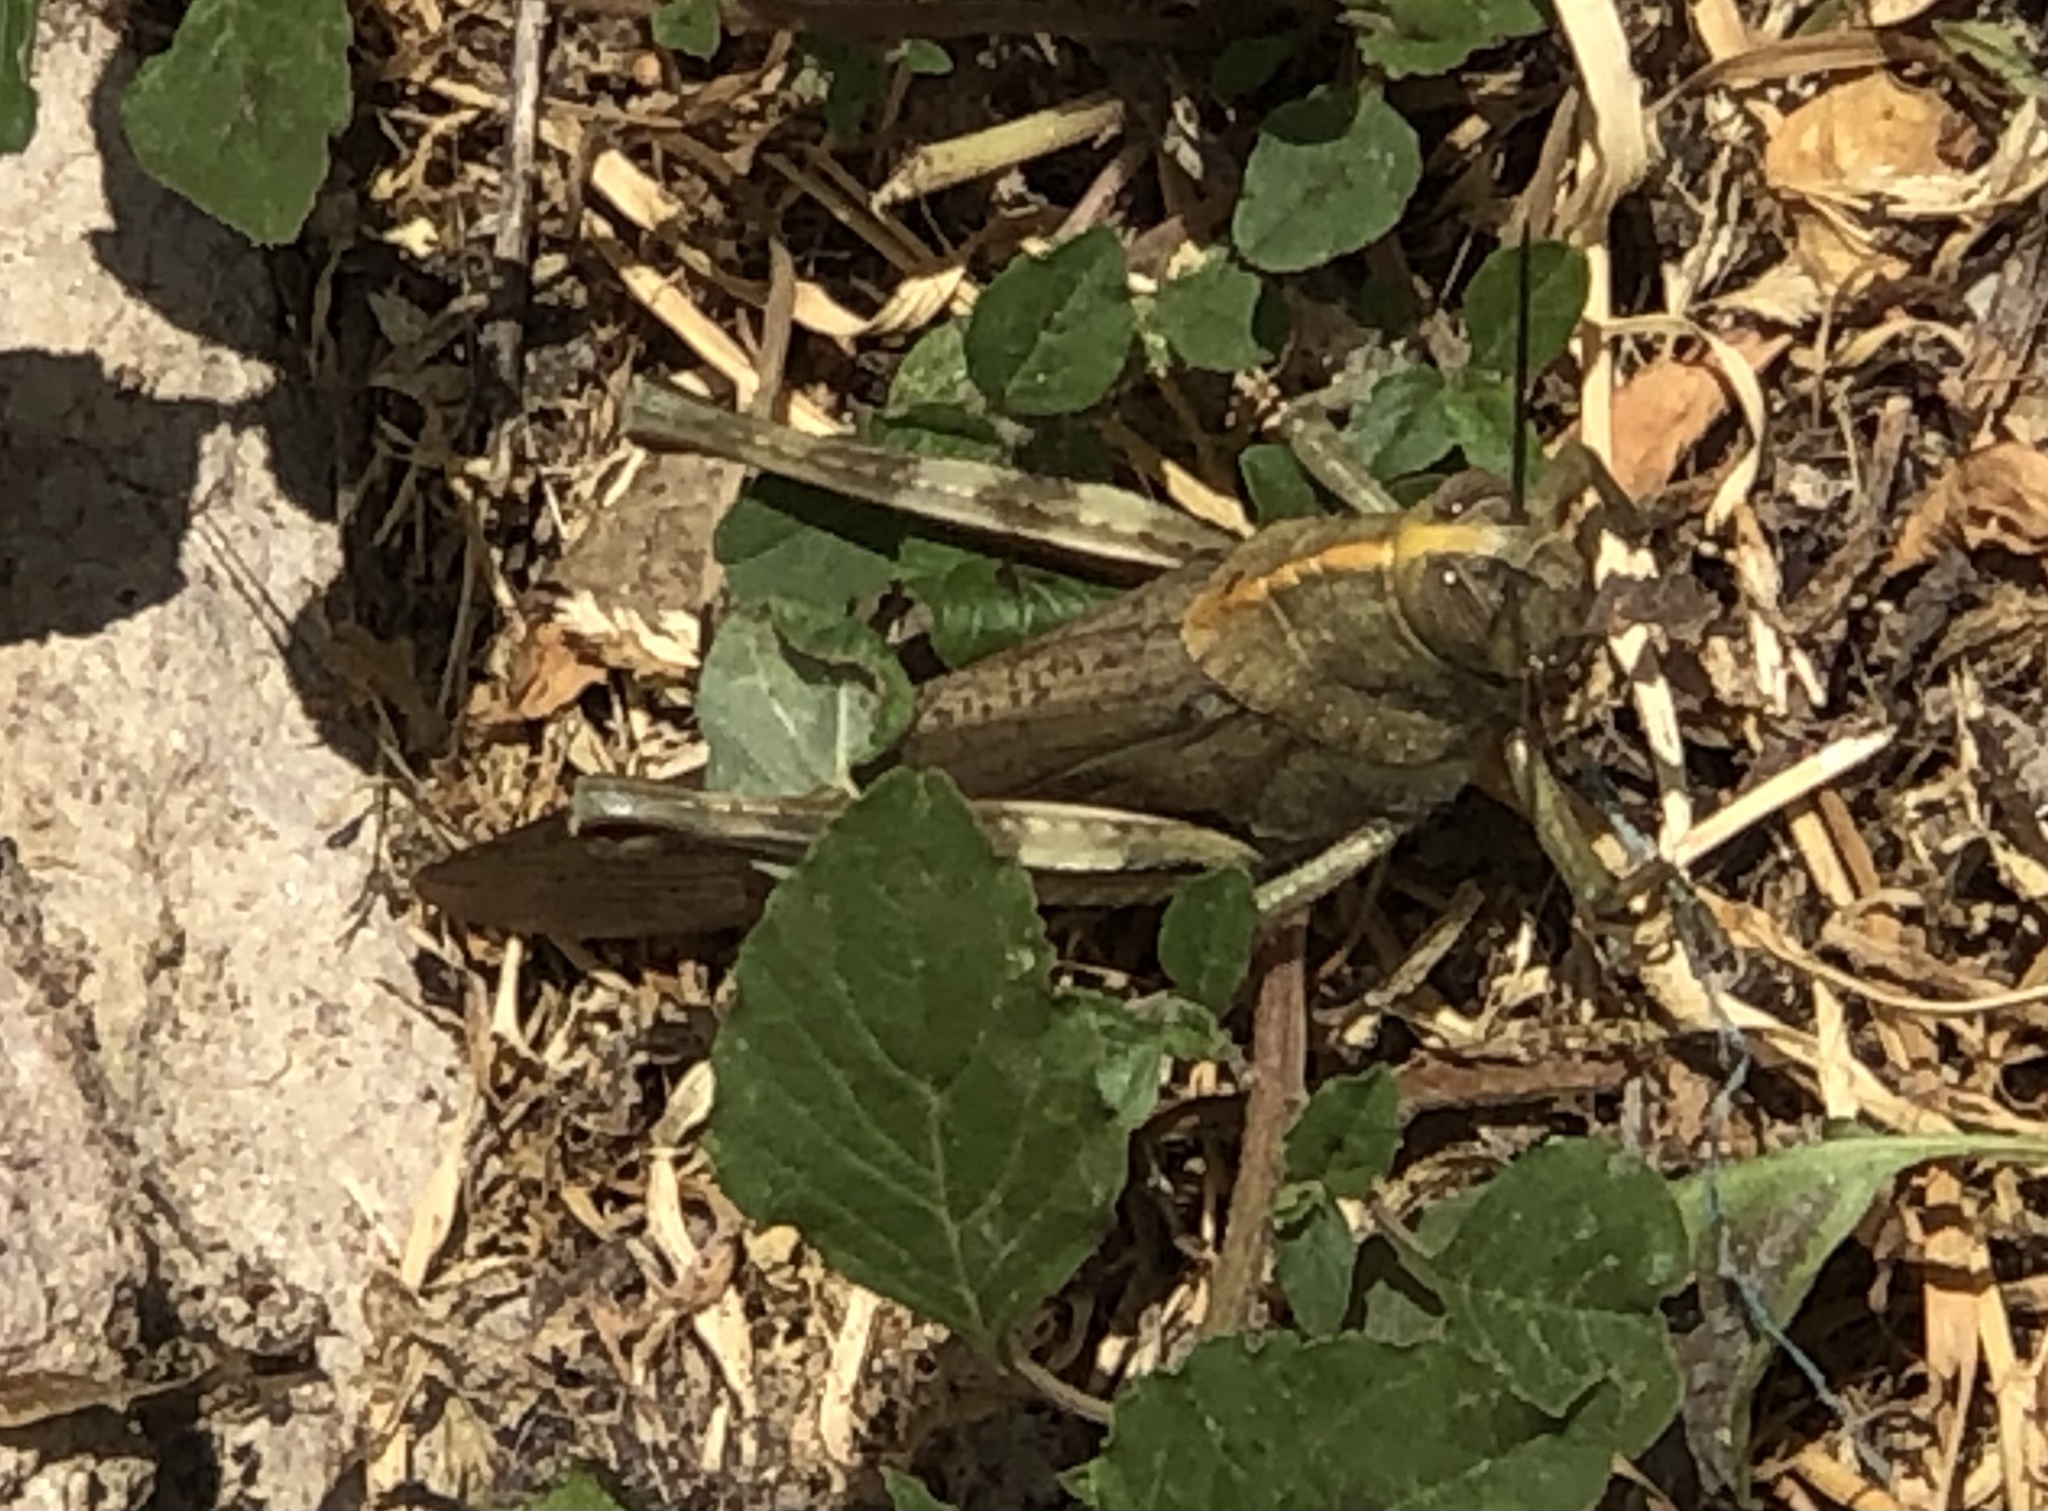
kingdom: Animalia
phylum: Arthropoda
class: Insecta
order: Orthoptera
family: Acrididae
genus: Anacridium
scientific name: Anacridium aegyptium
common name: Egyptian grasshopper
